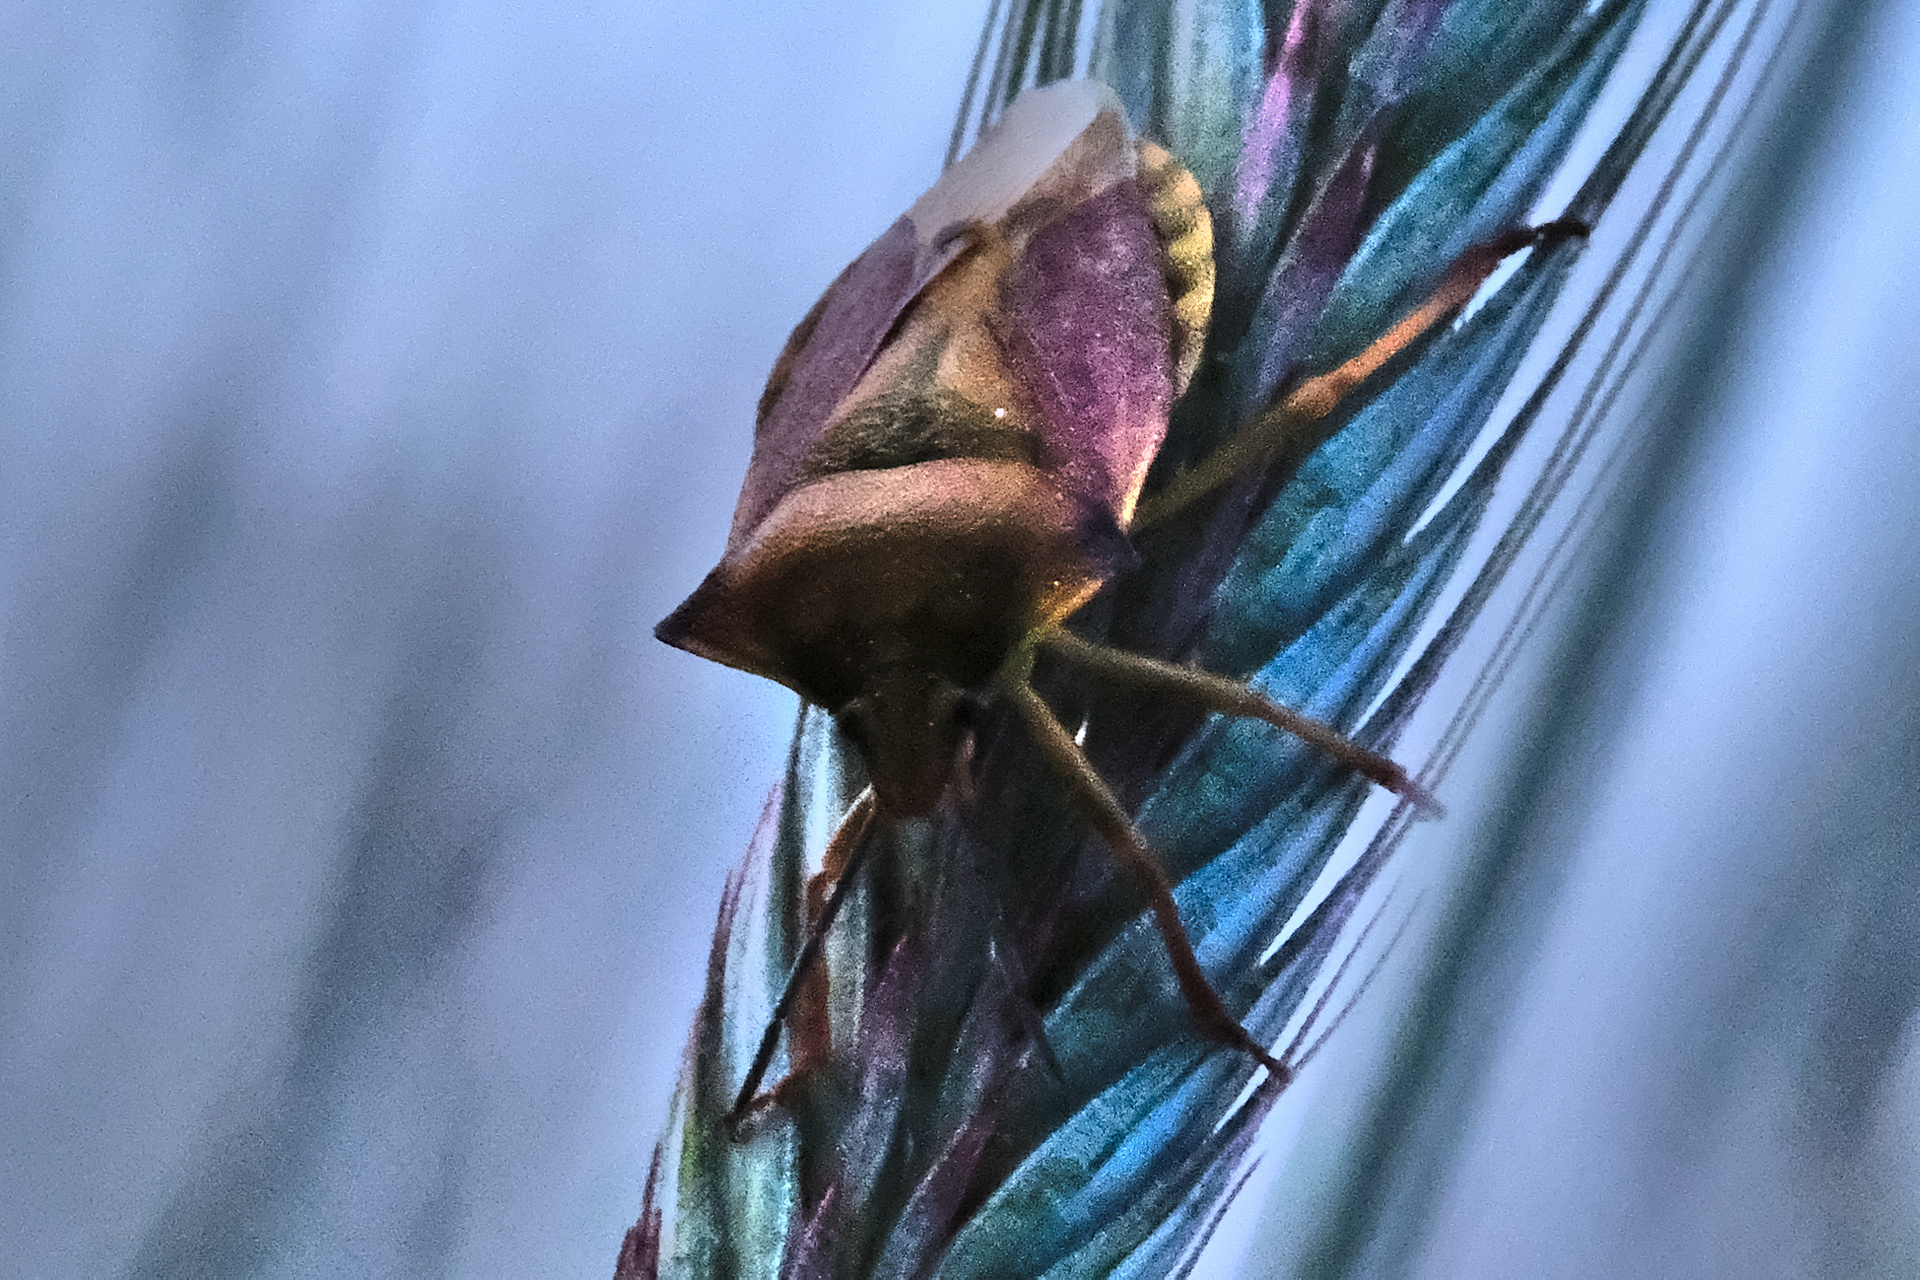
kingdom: Animalia
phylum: Arthropoda
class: Insecta
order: Hemiptera
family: Pentatomidae
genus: Carpocoris
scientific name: Carpocoris fuscispinus
